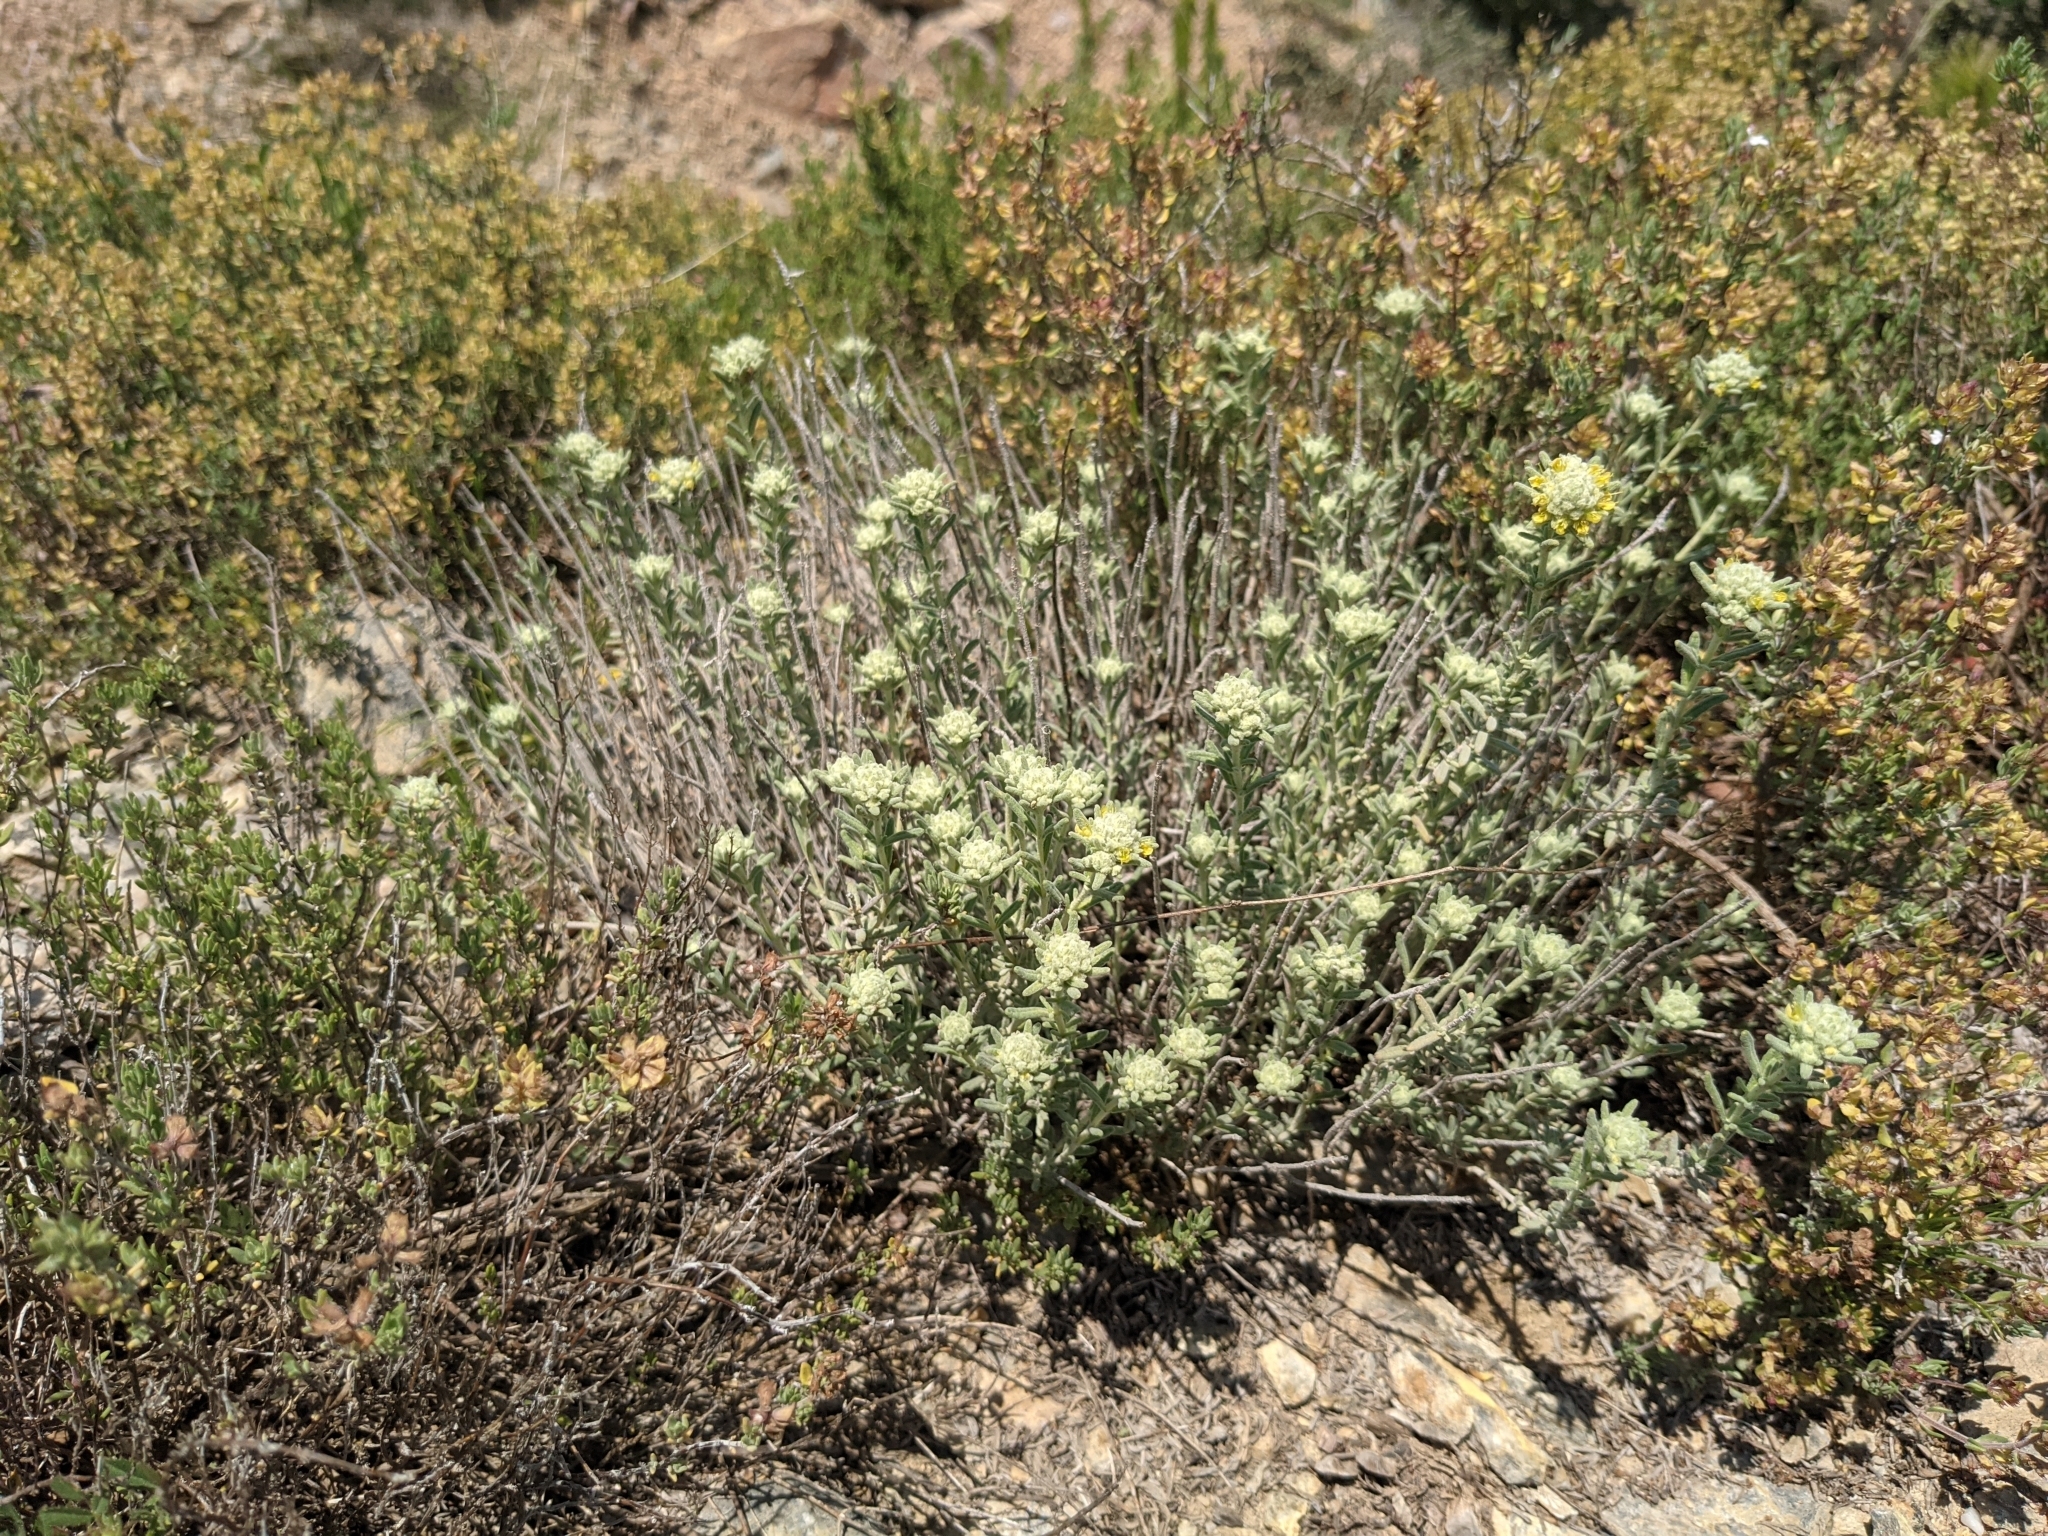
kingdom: Plantae
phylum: Tracheophyta
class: Magnoliopsida
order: Lamiales
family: Lamiaceae
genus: Teucrium
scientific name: Teucrium aureum
